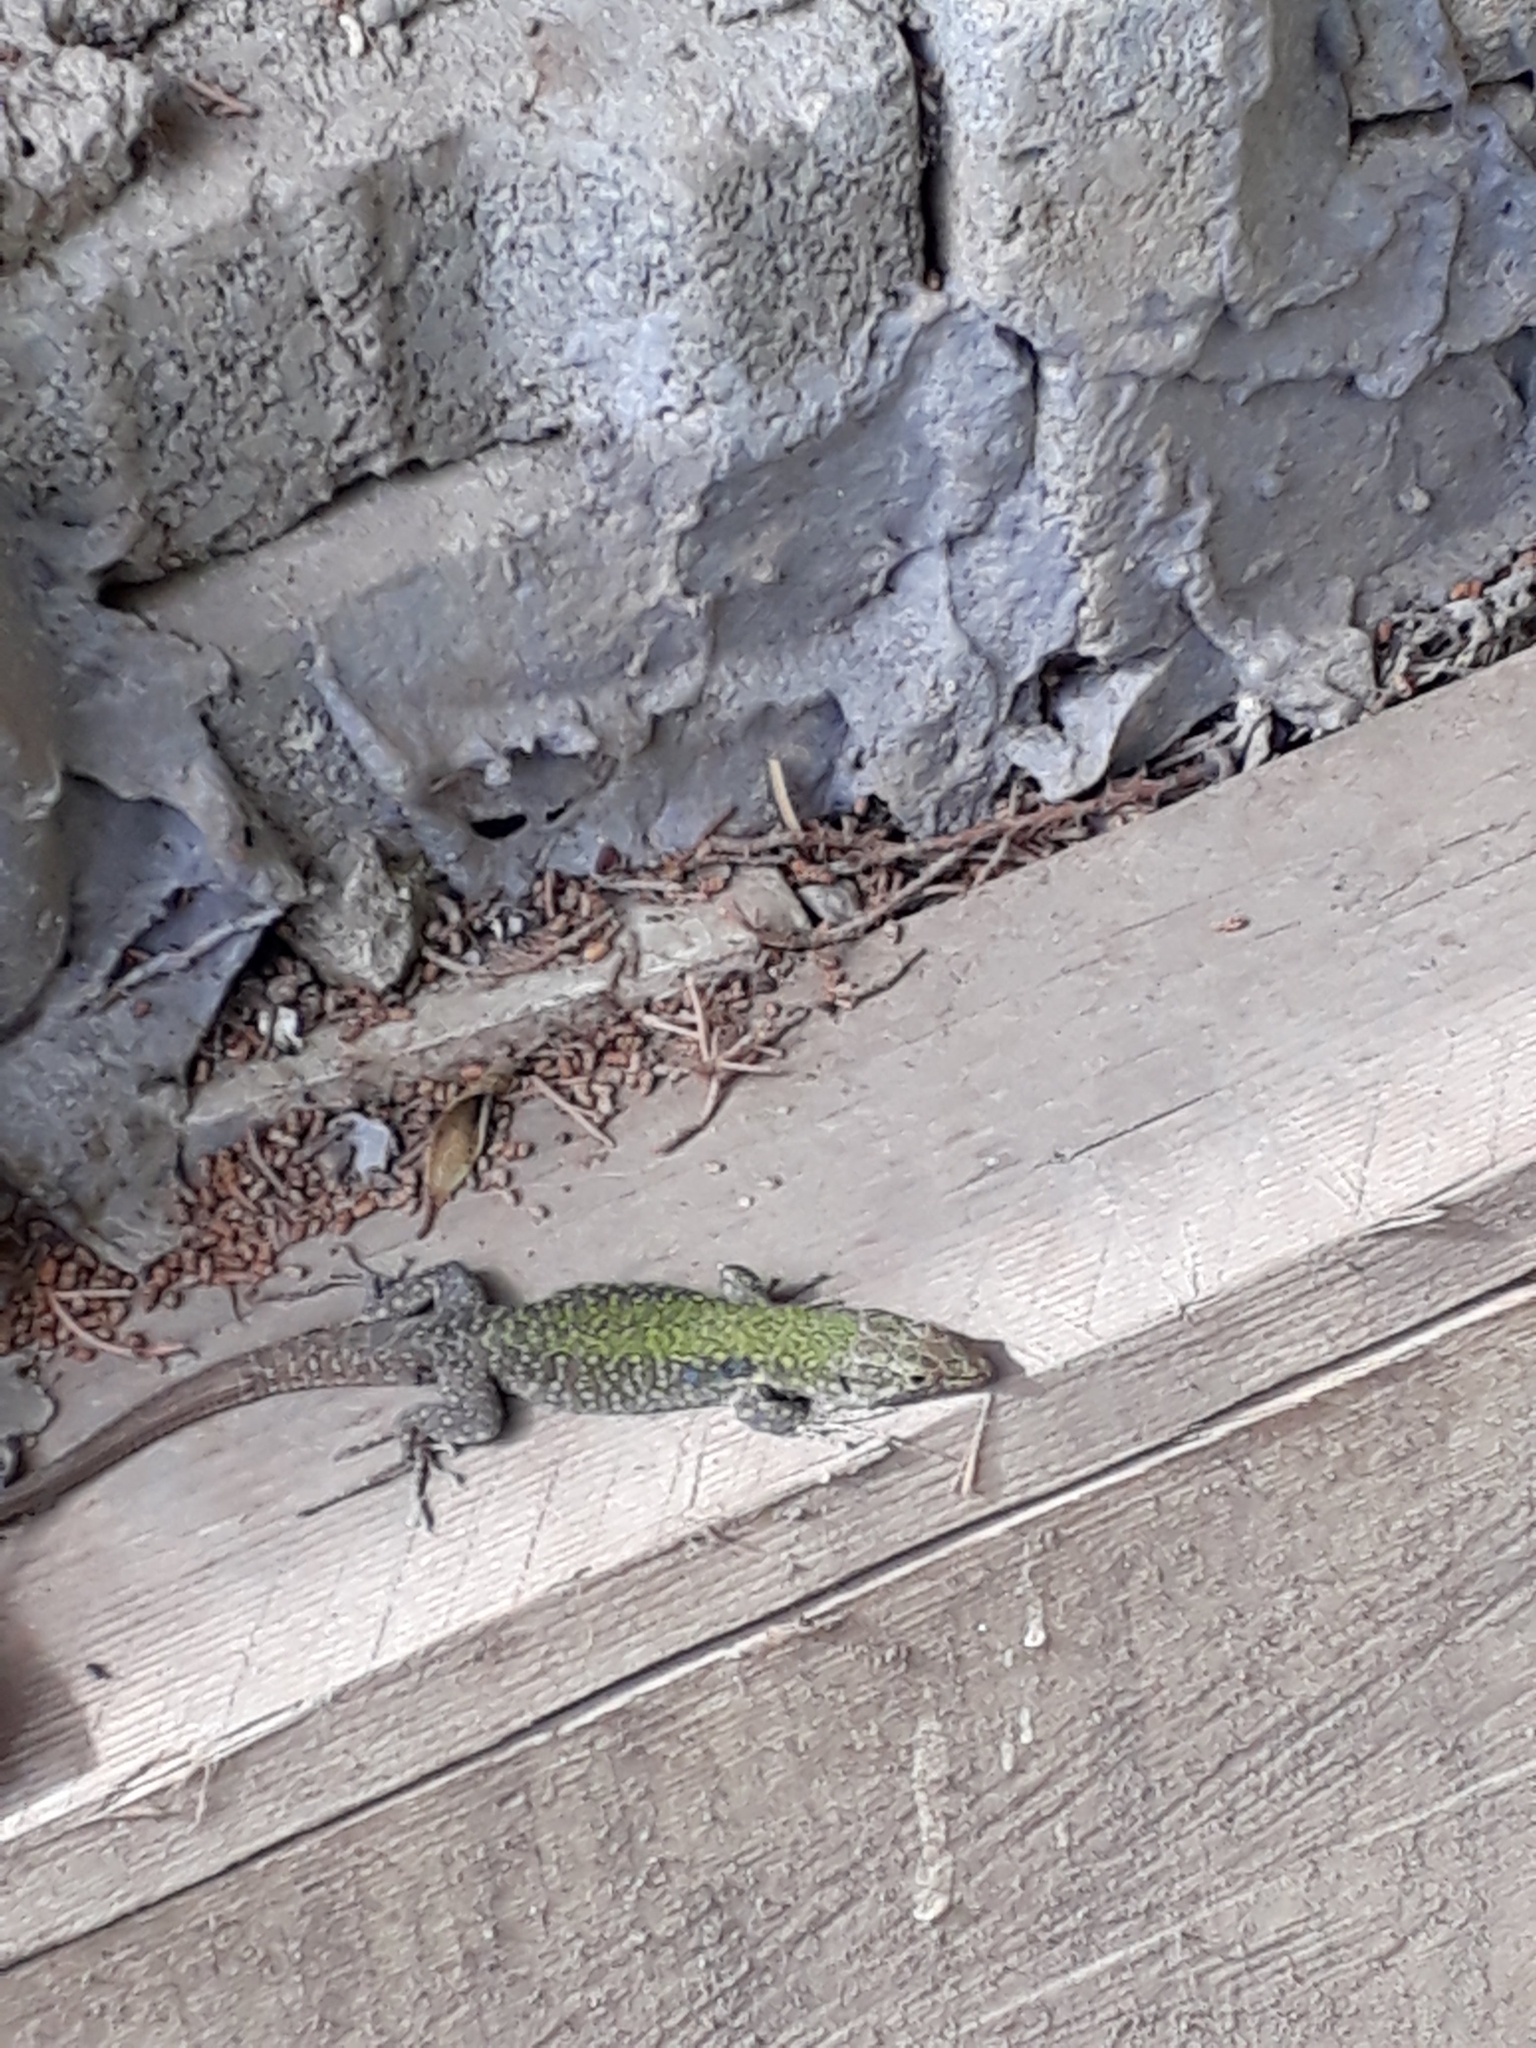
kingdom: Animalia
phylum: Chordata
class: Squamata
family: Lacertidae
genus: Podarcis
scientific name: Podarcis siculus
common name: Italian wall lizard
